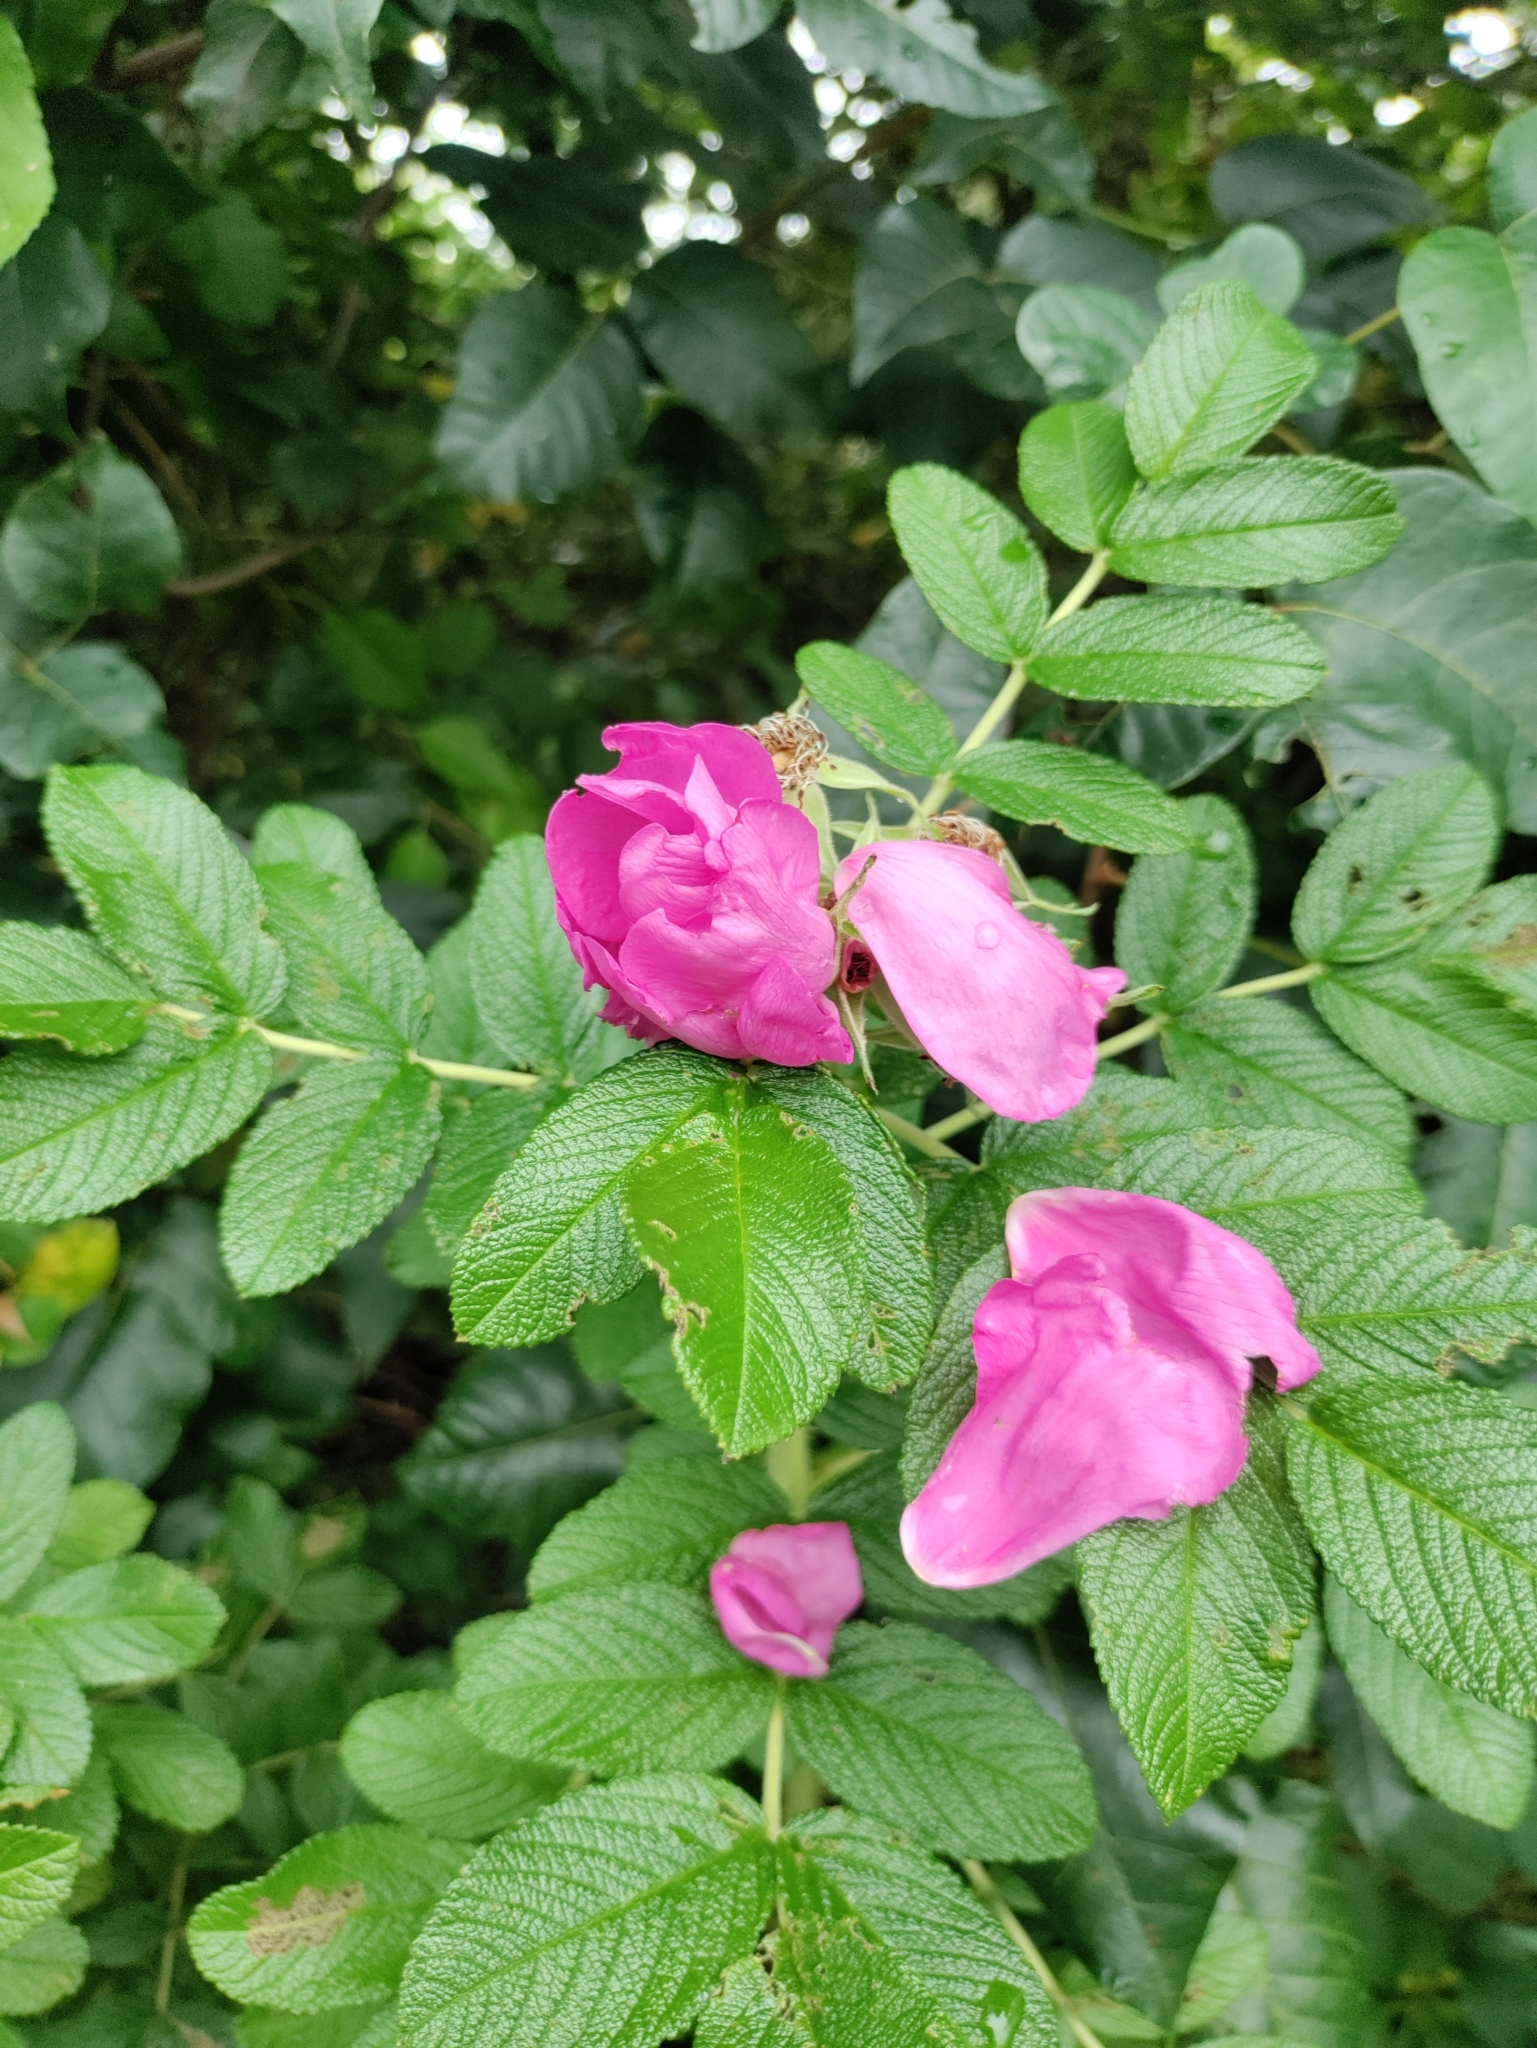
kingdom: Plantae
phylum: Tracheophyta
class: Magnoliopsida
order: Rosales
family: Rosaceae
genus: Rosa
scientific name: Rosa rugosa
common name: Japanese rose
